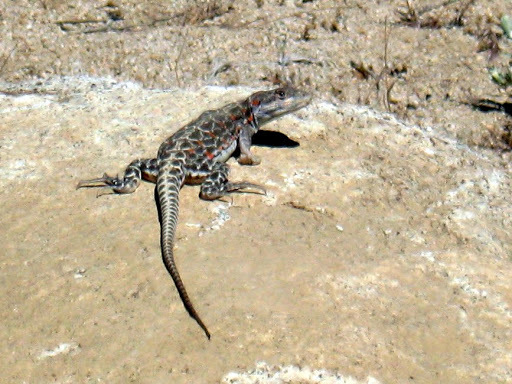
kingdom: Animalia
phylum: Chordata
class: Squamata
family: Crotaphytidae
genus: Gambelia
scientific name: Gambelia wislizenii
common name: Longnose leopard lizard
